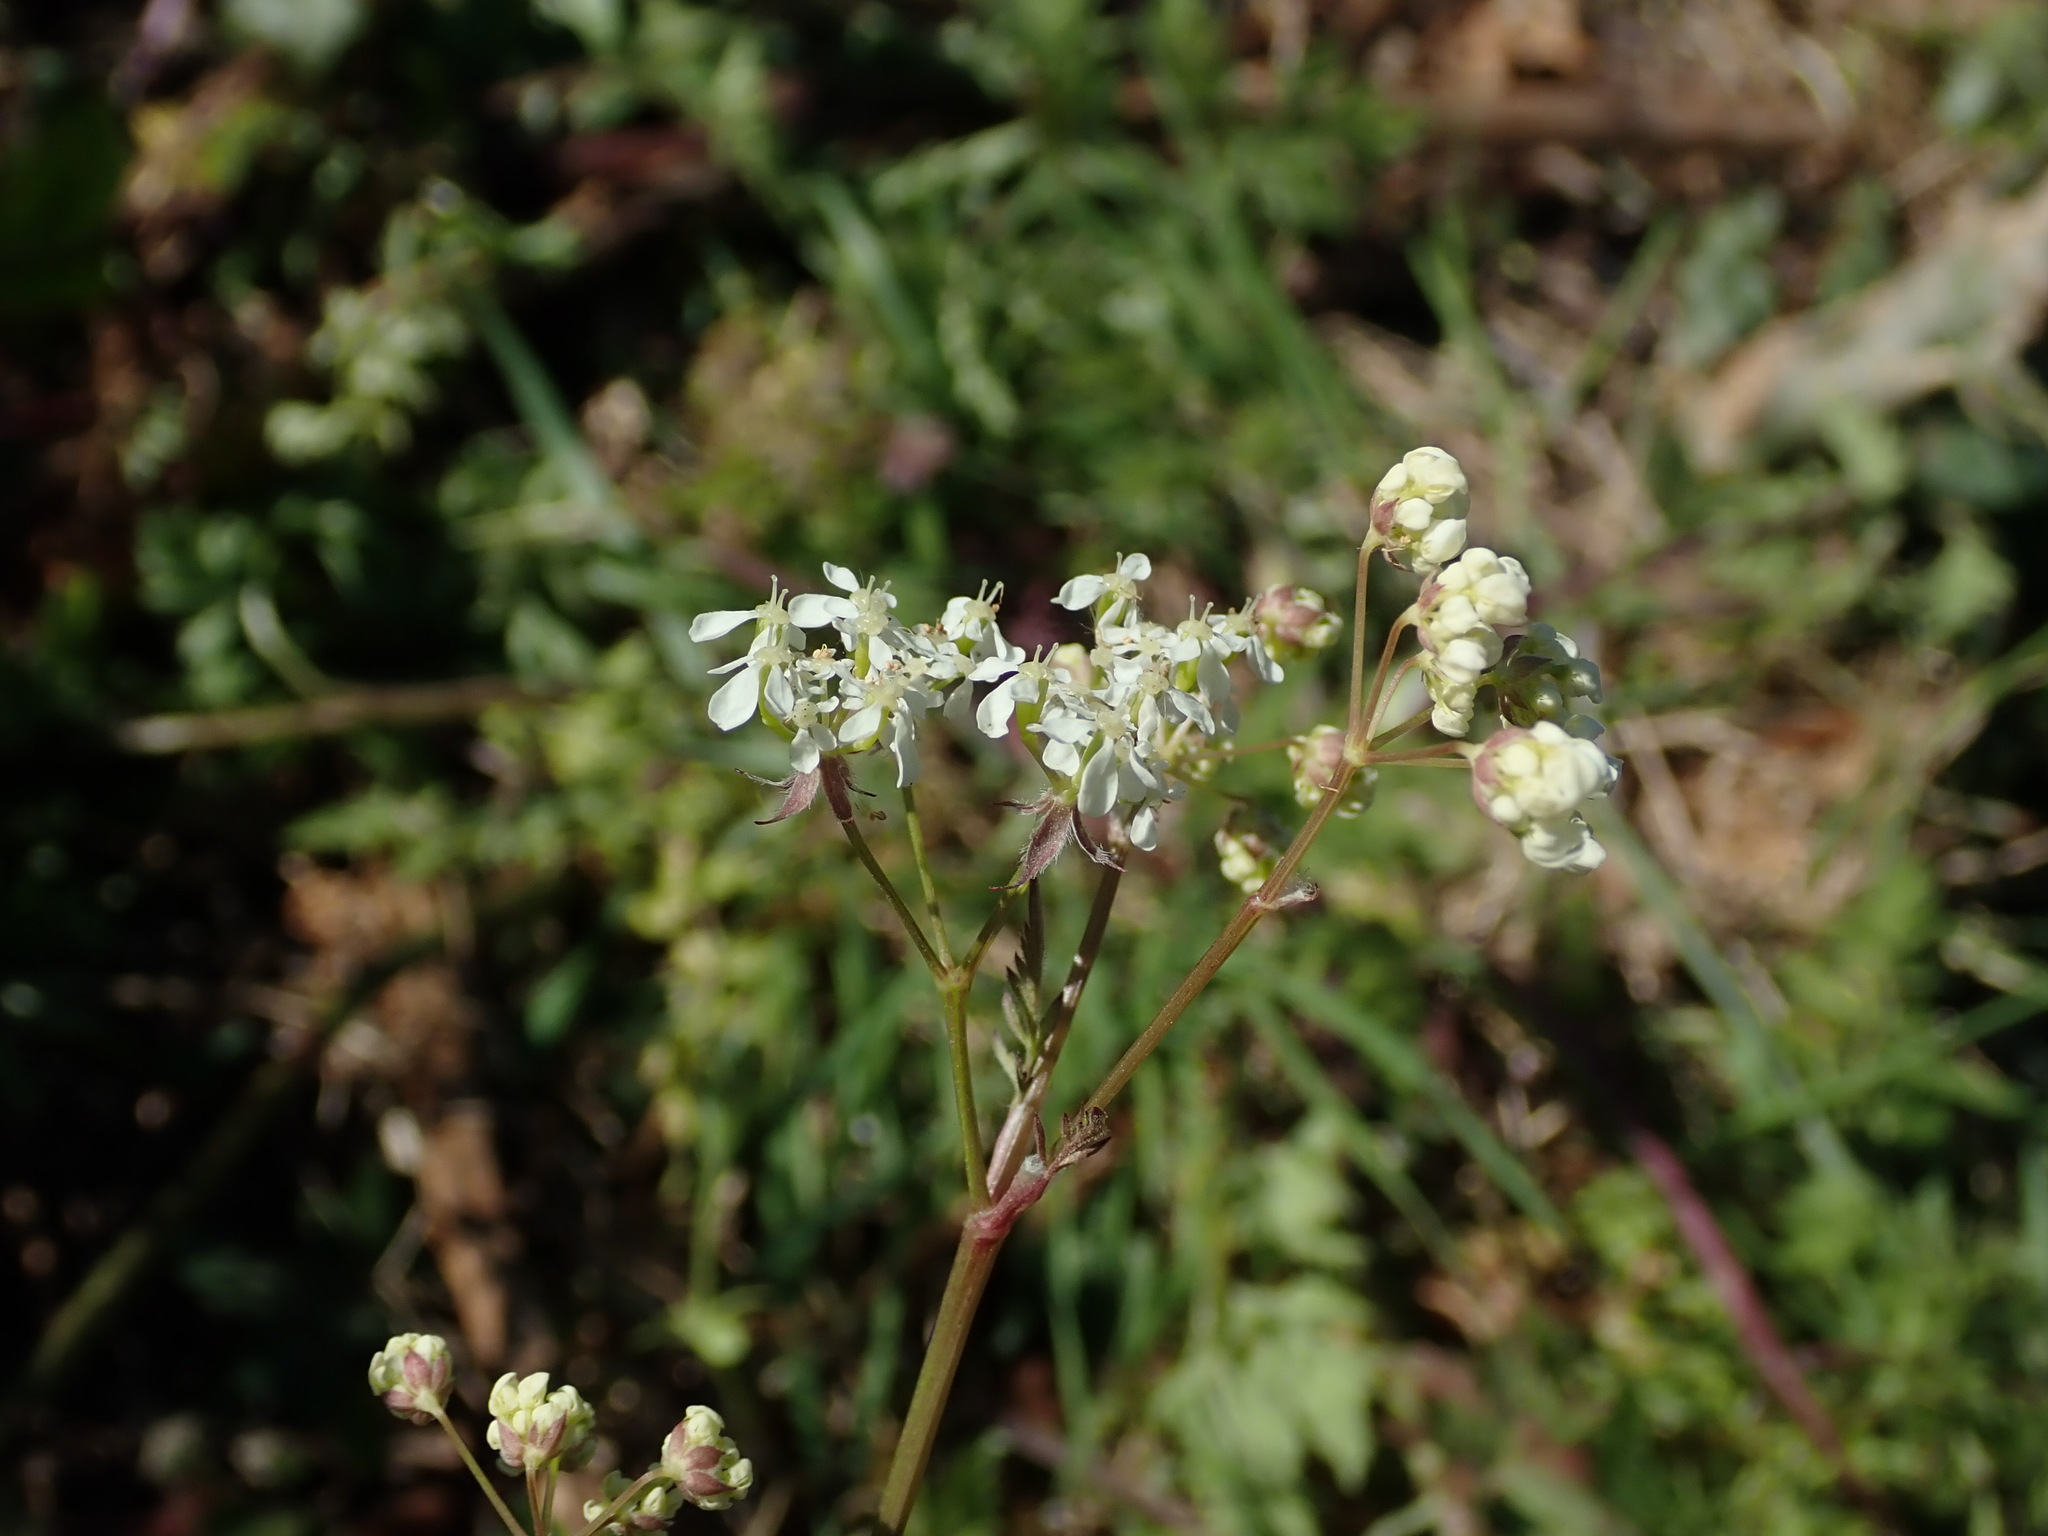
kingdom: Plantae
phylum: Tracheophyta
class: Magnoliopsida
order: Apiales
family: Apiaceae
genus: Anthriscus
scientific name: Anthriscus sylvestris
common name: Cow parsley
